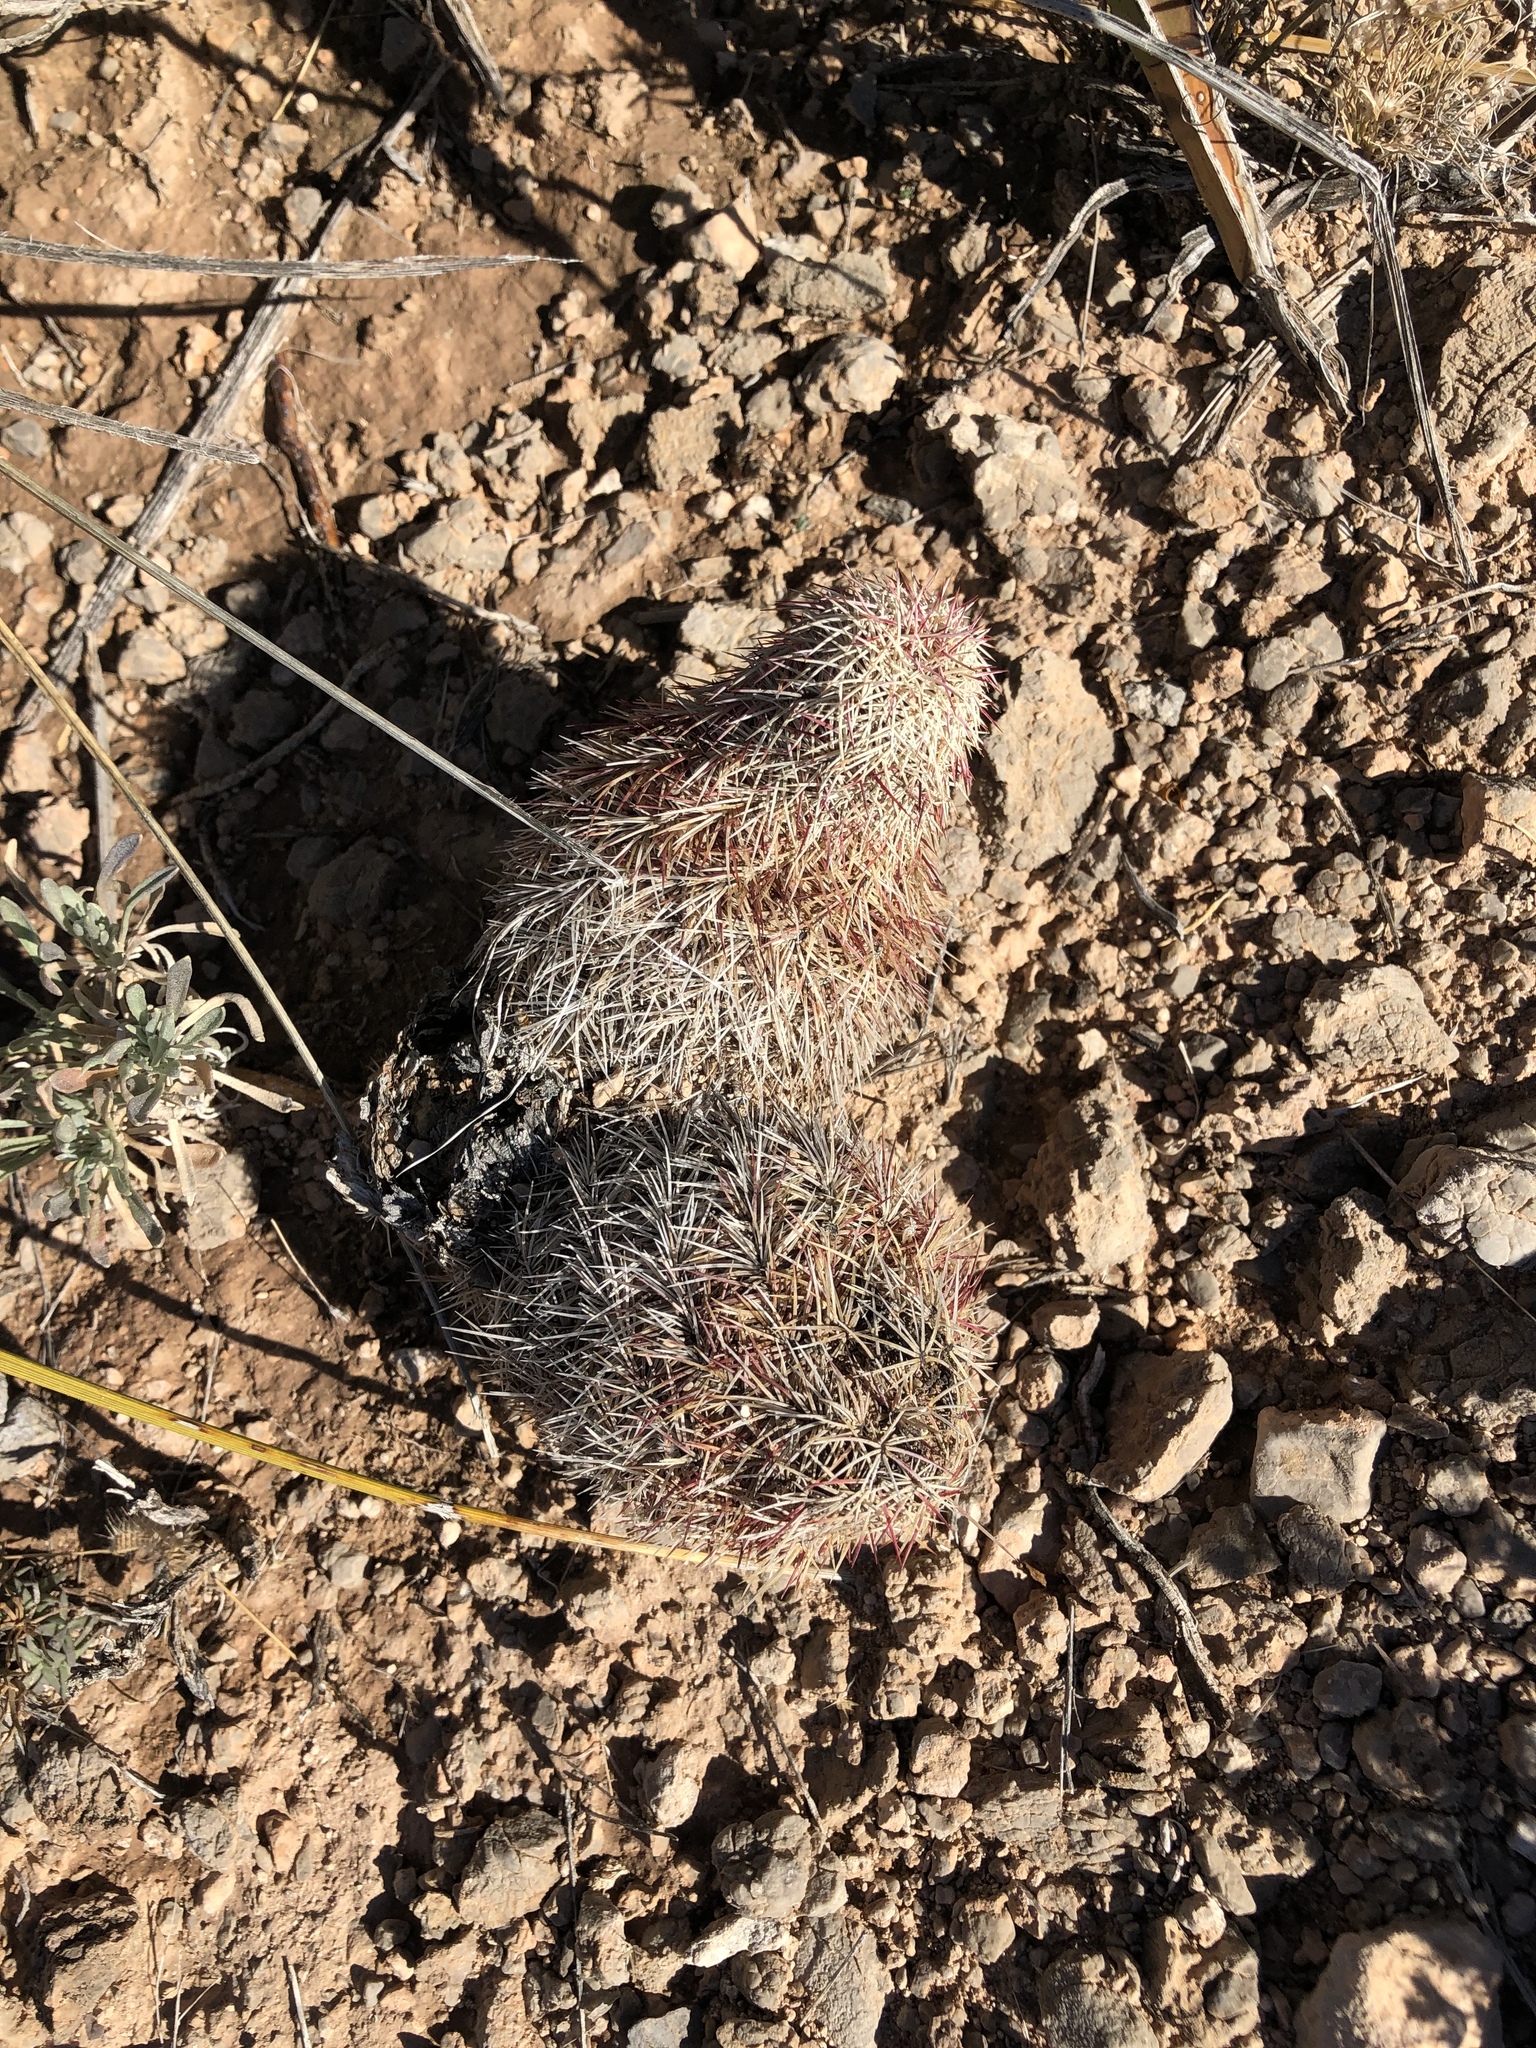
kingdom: Plantae
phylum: Tracheophyta
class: Magnoliopsida
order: Caryophyllales
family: Cactaceae
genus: Echinocereus
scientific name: Echinocereus dasyacanthus
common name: Spiny hedgehog cactus
